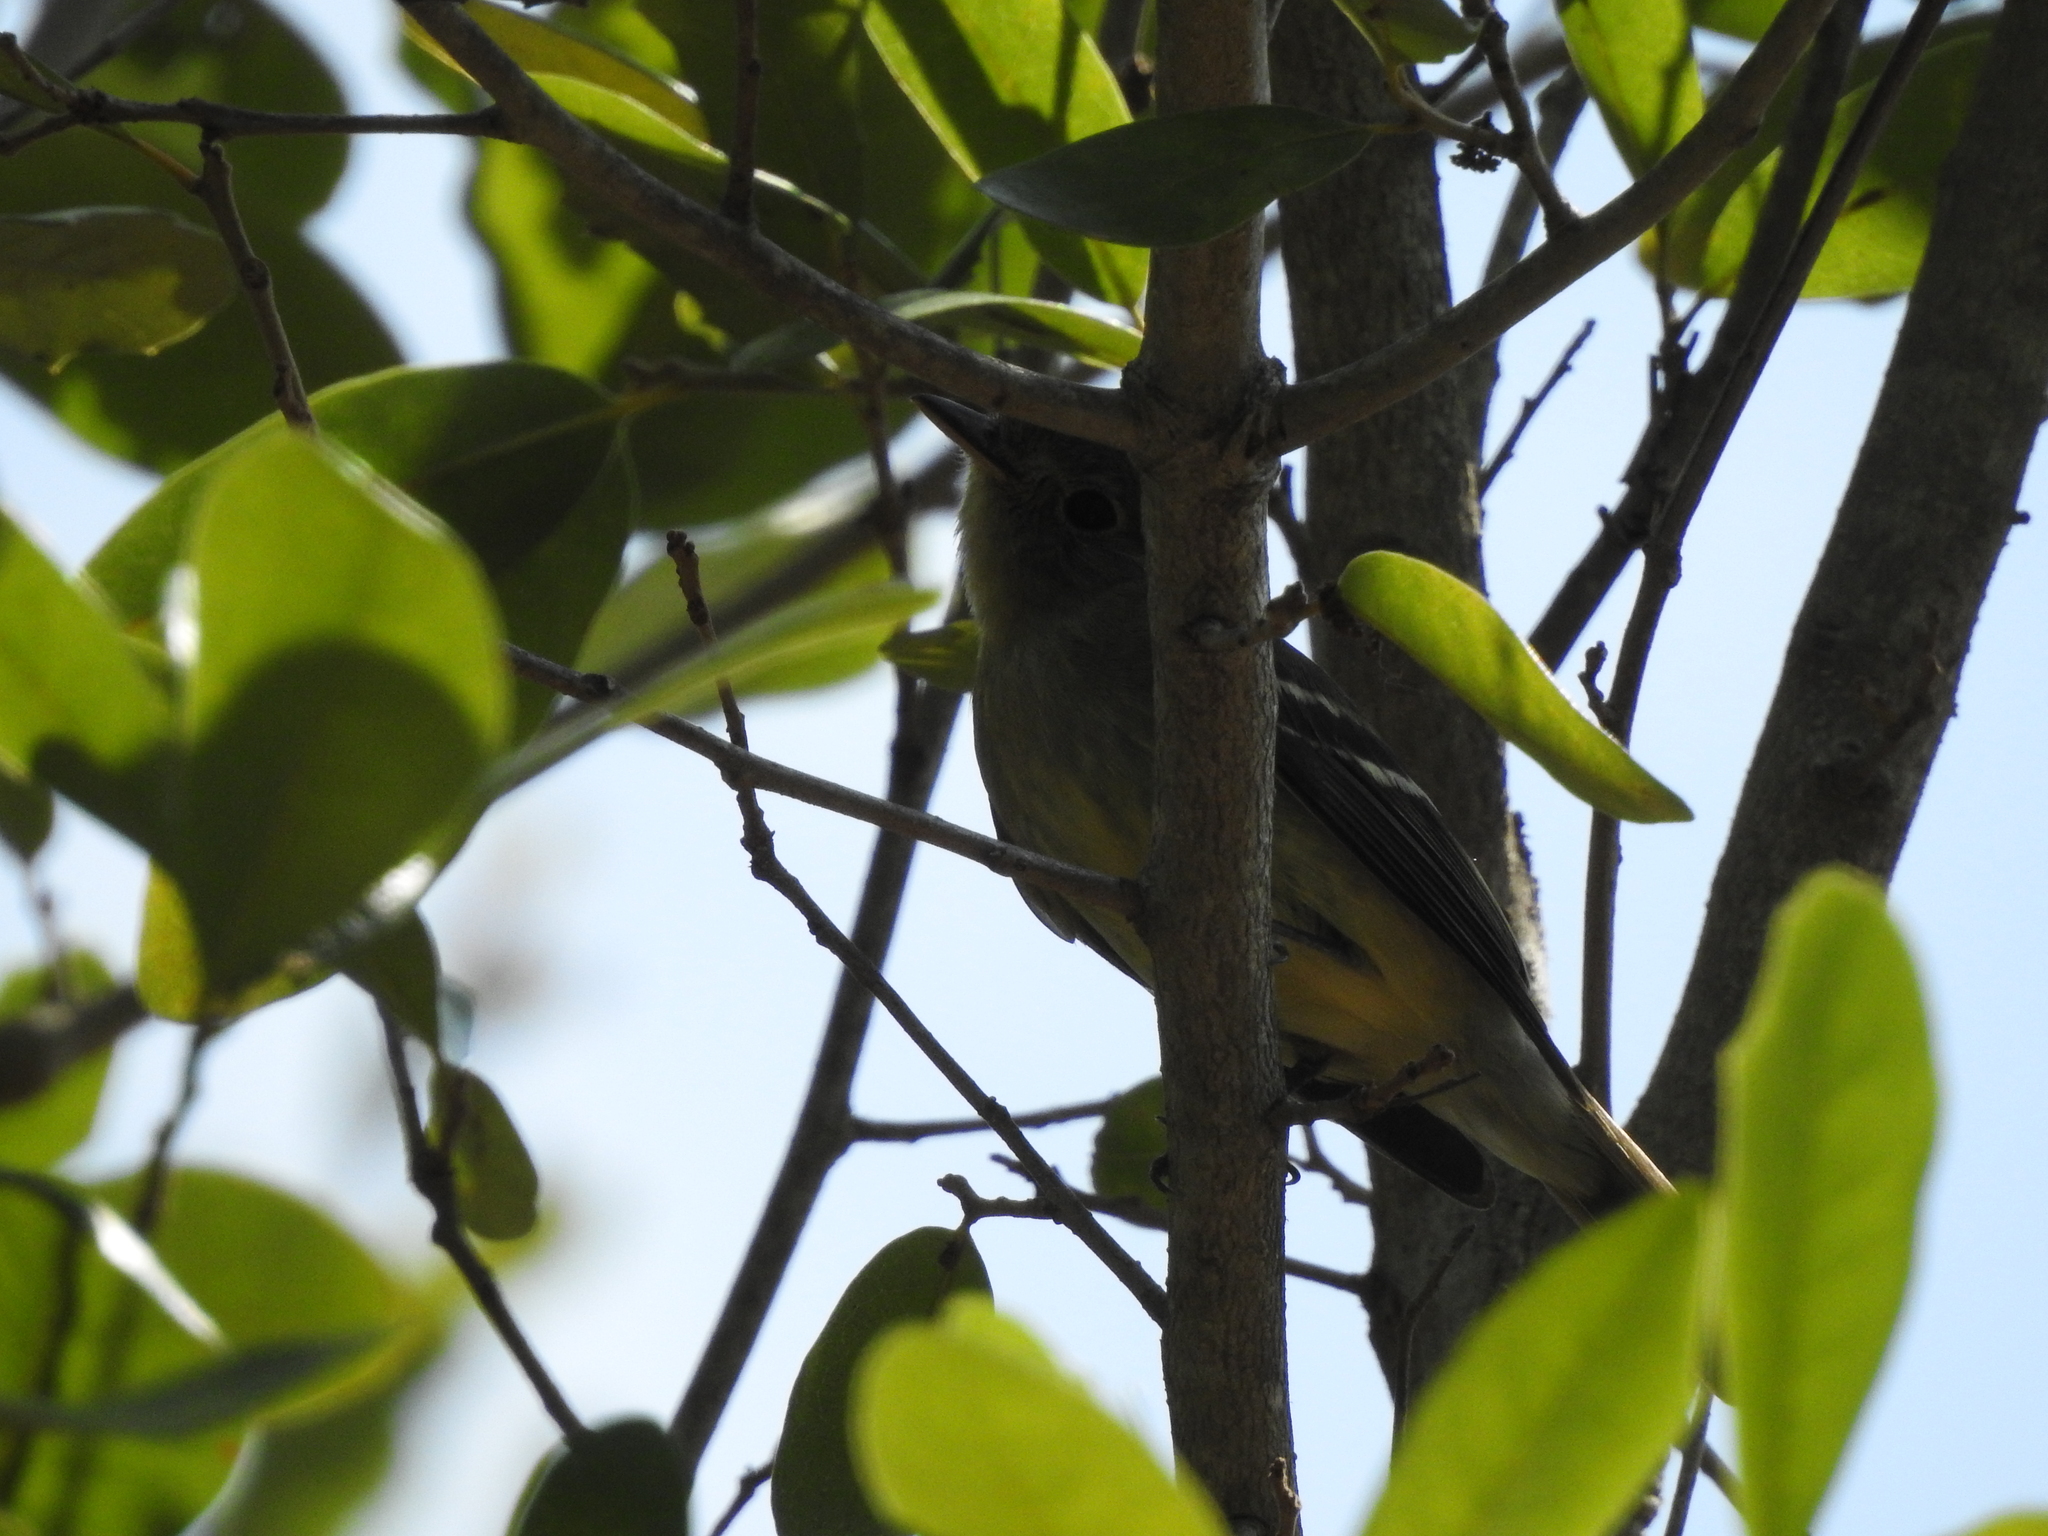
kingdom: Animalia
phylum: Chordata
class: Aves
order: Passeriformes
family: Tyrannidae
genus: Empidonax
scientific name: Empidonax flaviventris
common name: Yellow-bellied flycatcher
